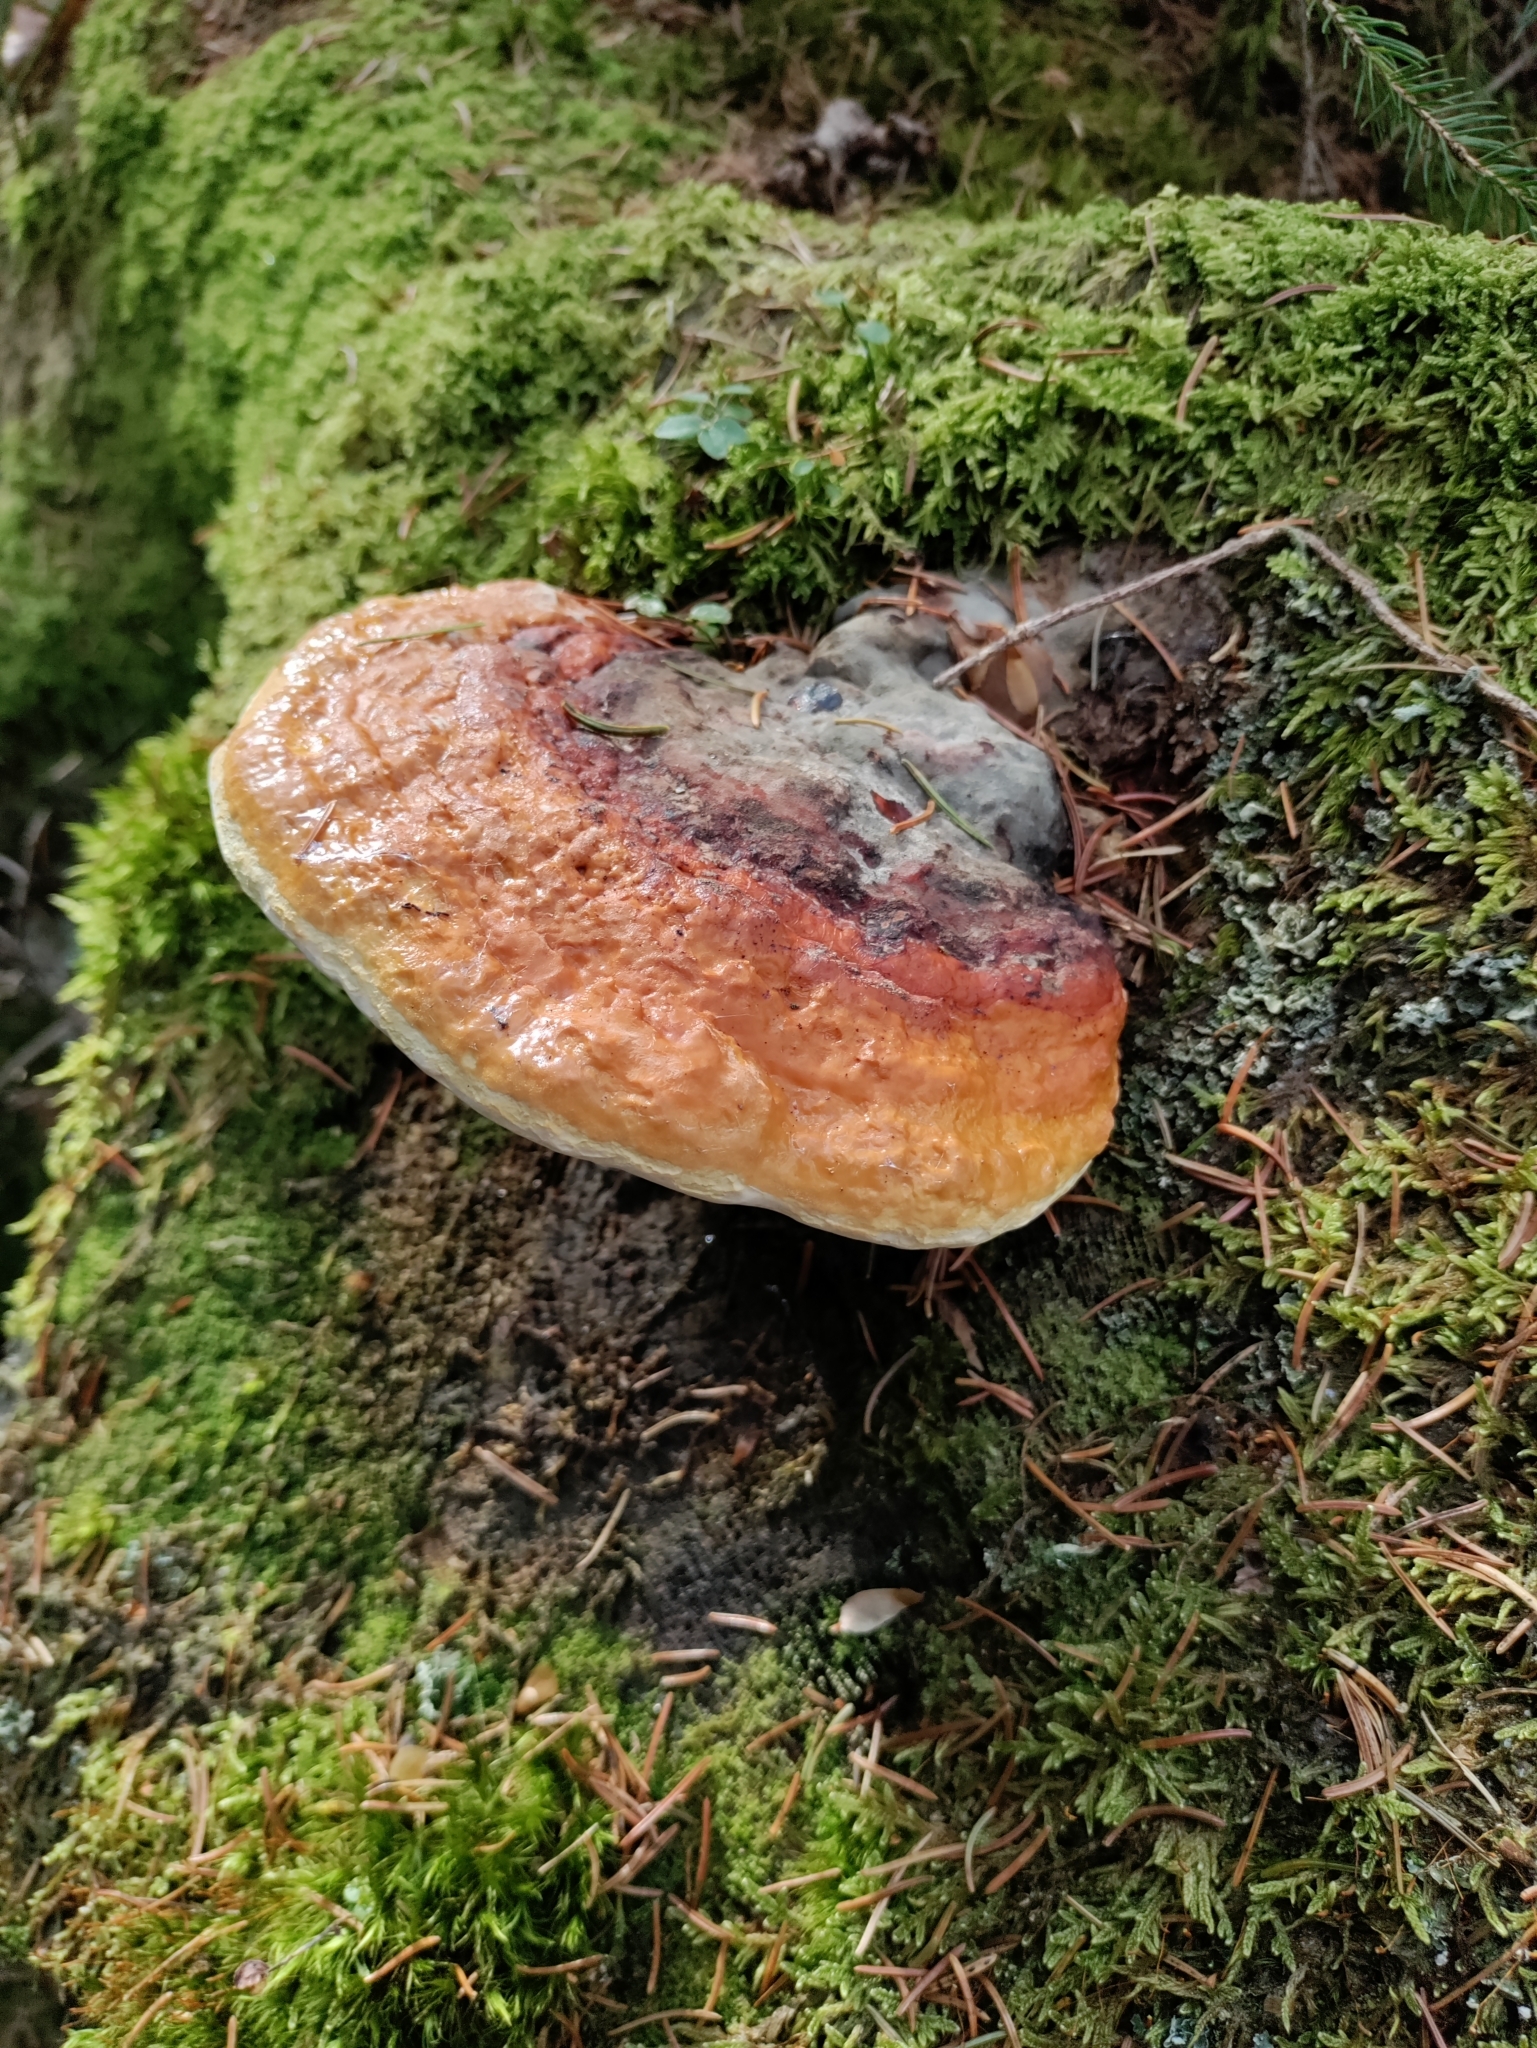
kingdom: Fungi
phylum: Basidiomycota
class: Agaricomycetes
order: Polyporales
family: Fomitopsidaceae
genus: Fomitopsis
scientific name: Fomitopsis pinicola
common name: Red-belted bracket
